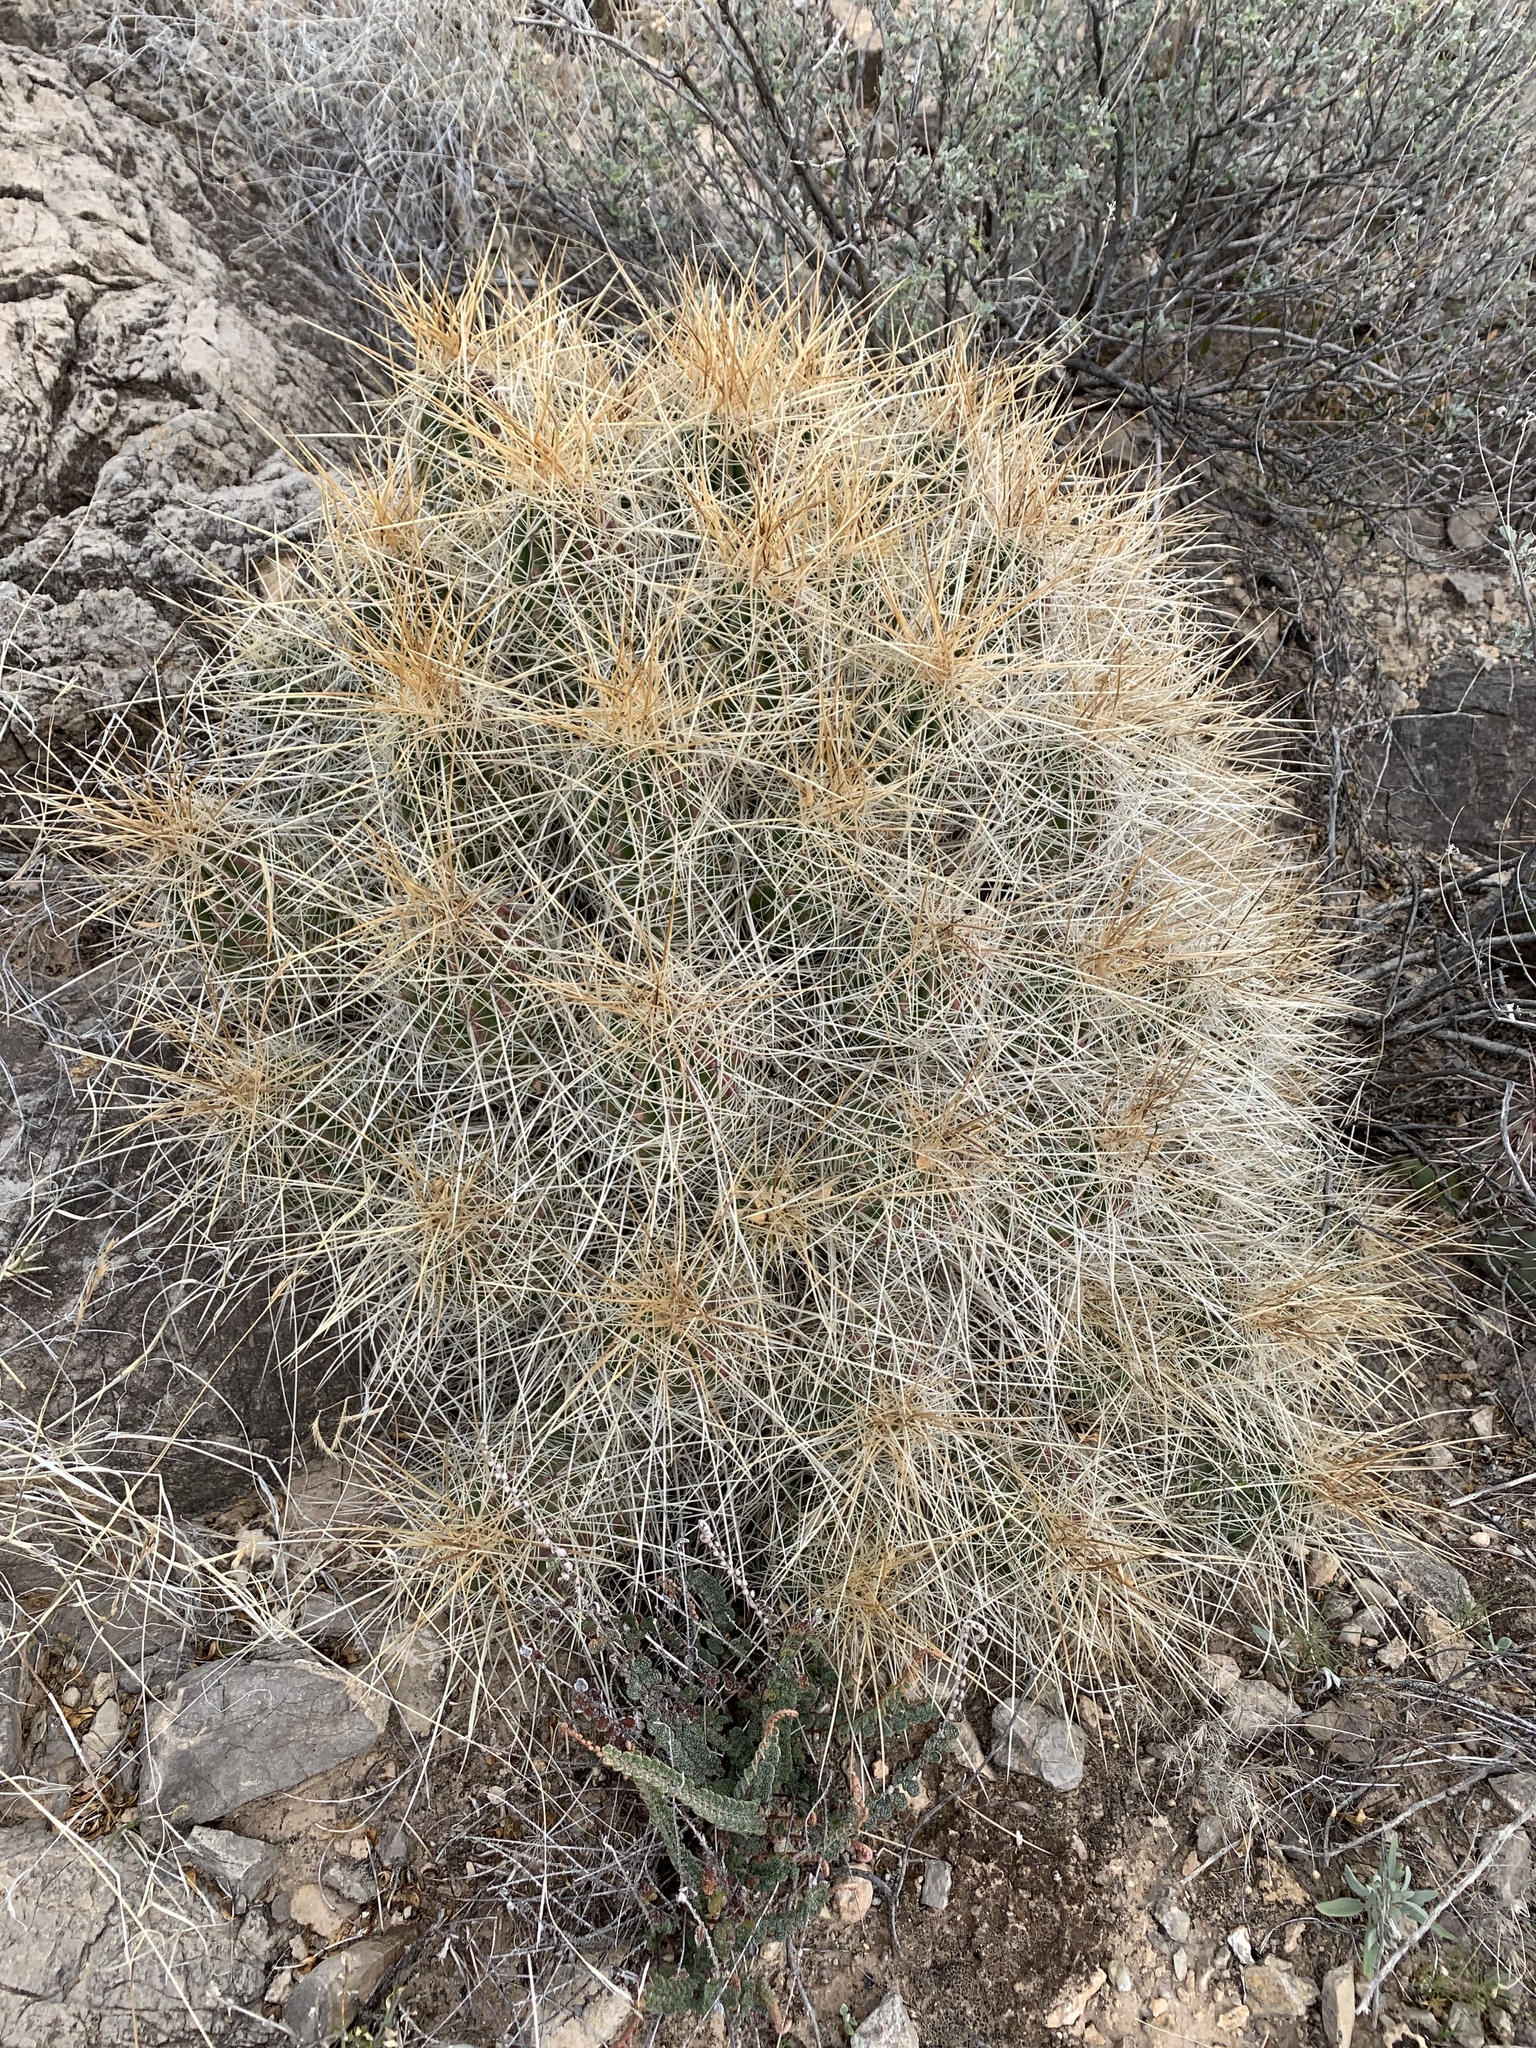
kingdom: Plantae
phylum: Tracheophyta
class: Magnoliopsida
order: Caryophyllales
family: Cactaceae
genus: Echinocereus
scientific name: Echinocereus stramineus
